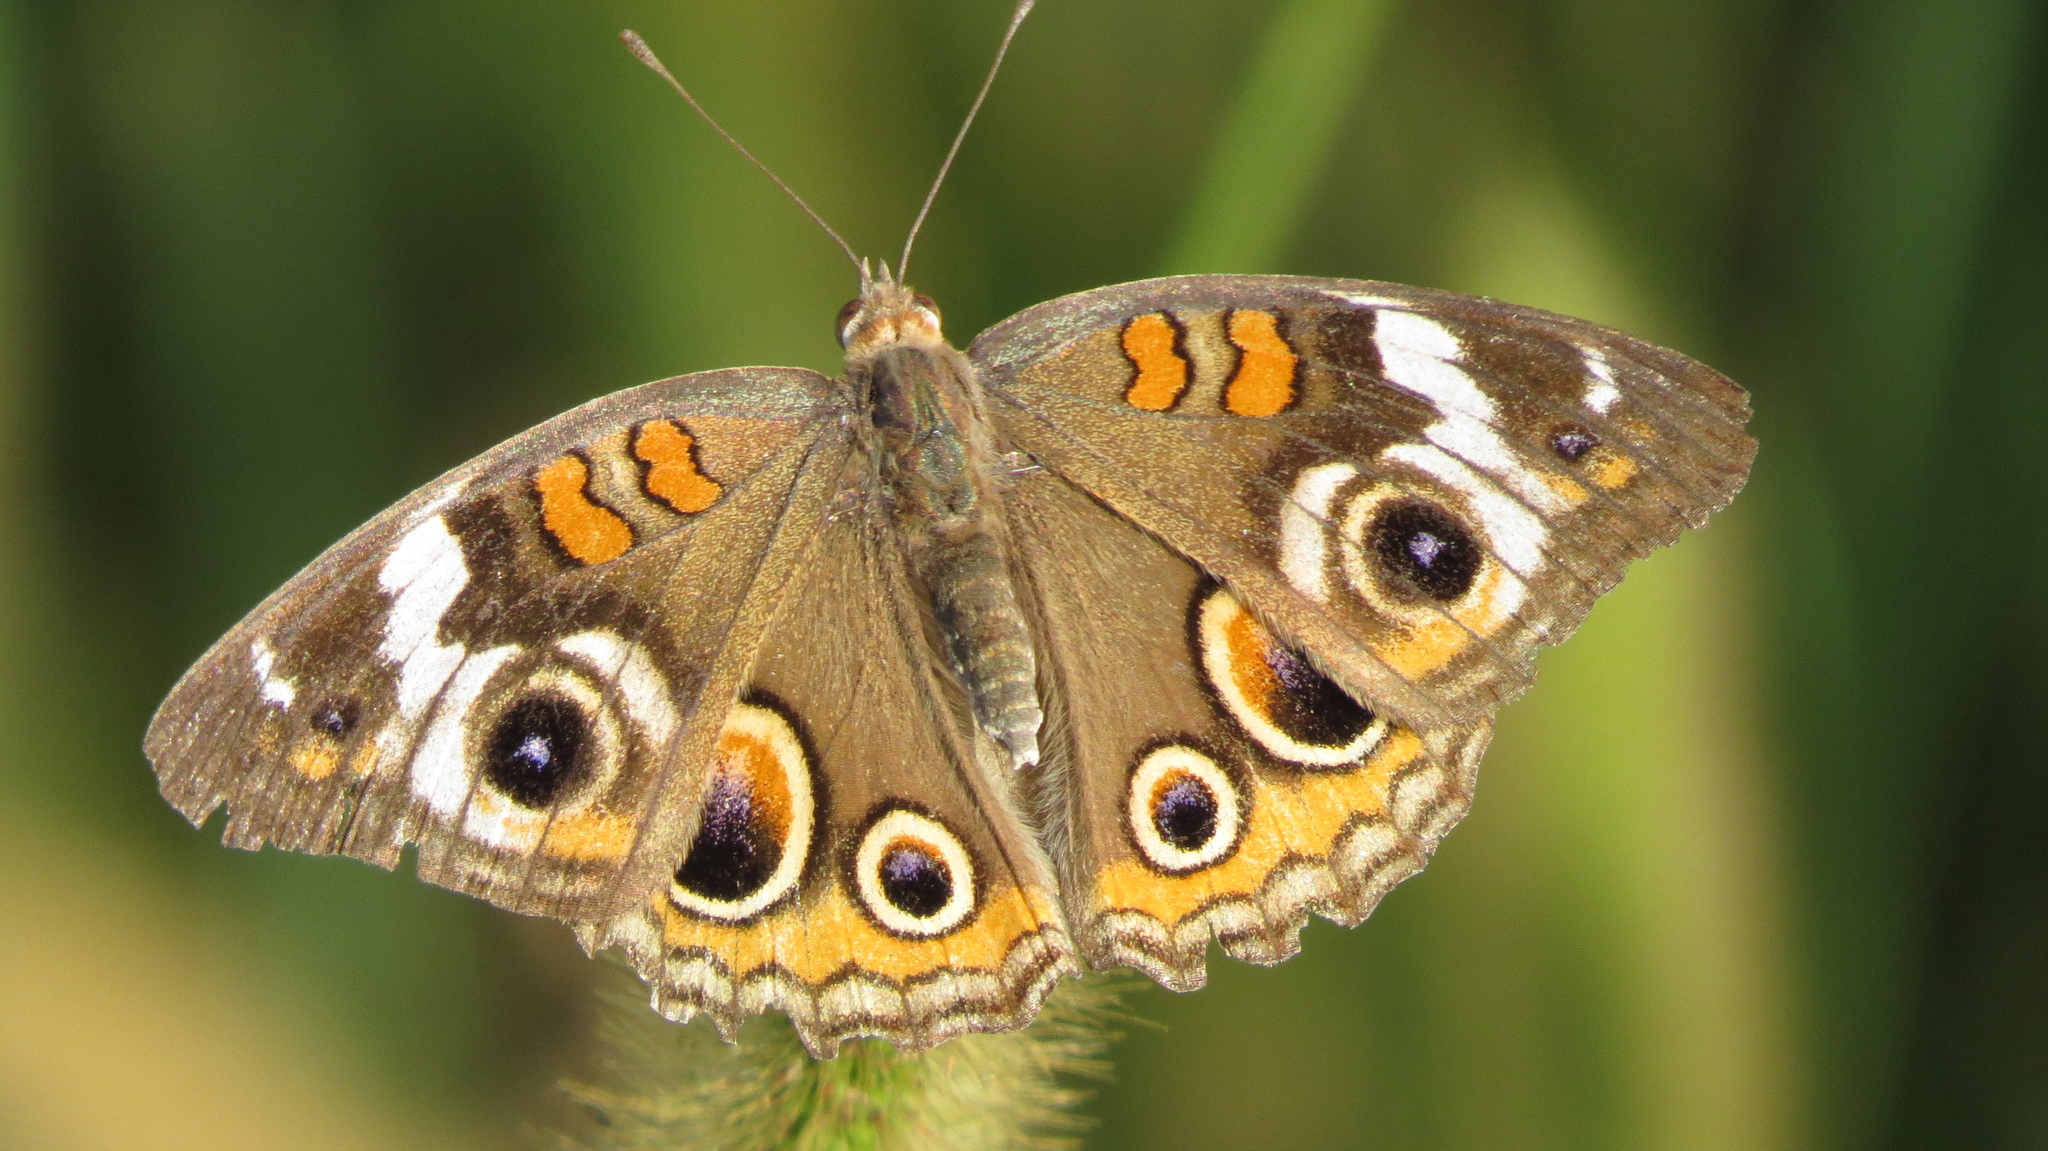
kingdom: Animalia
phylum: Arthropoda
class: Insecta
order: Lepidoptera
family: Nymphalidae
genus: Junonia
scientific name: Junonia coenia
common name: Common buckeye
